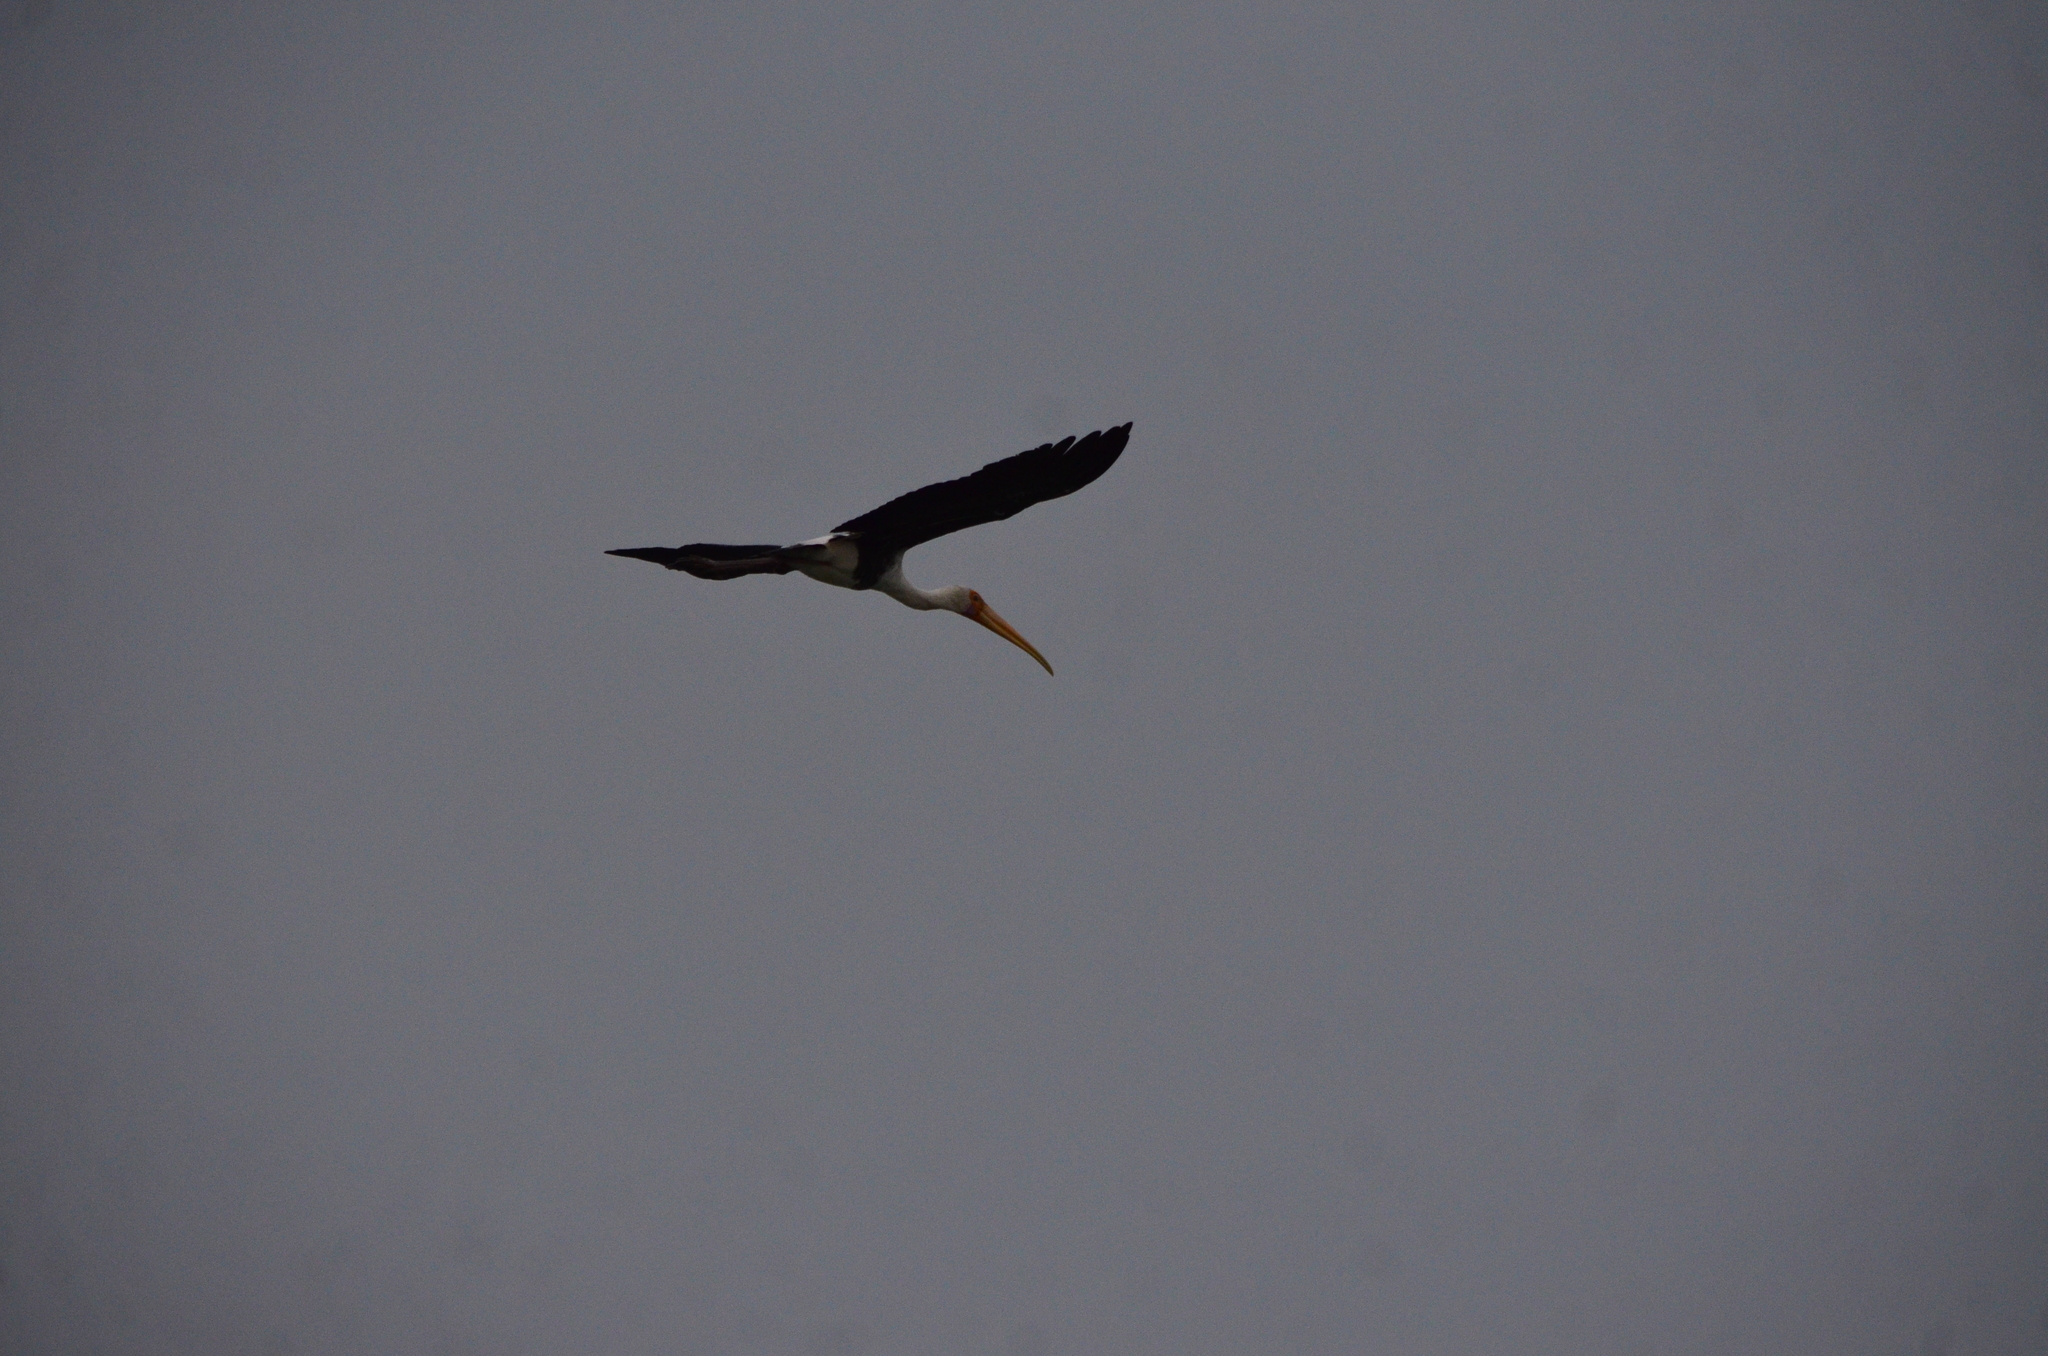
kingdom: Animalia
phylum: Chordata
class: Aves
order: Ciconiiformes
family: Ciconiidae
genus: Mycteria
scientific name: Mycteria leucocephala
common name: Painted stork
